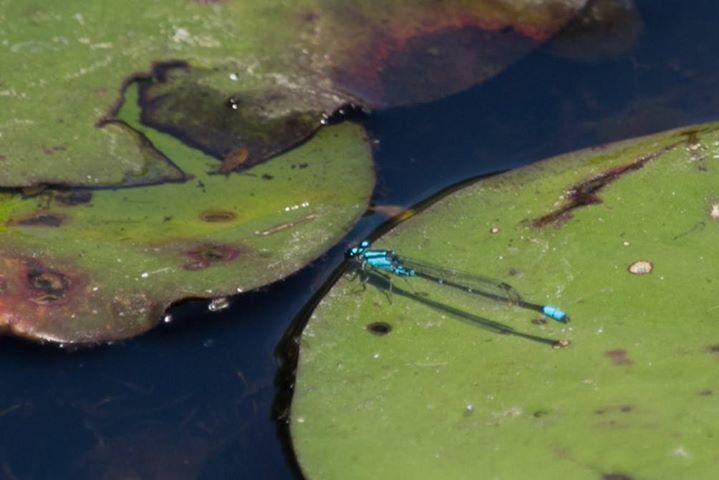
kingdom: Animalia
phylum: Arthropoda
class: Insecta
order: Odonata
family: Coenagrionidae
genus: Enallagma
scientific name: Enallagma geminatum
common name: Skimming bluet
